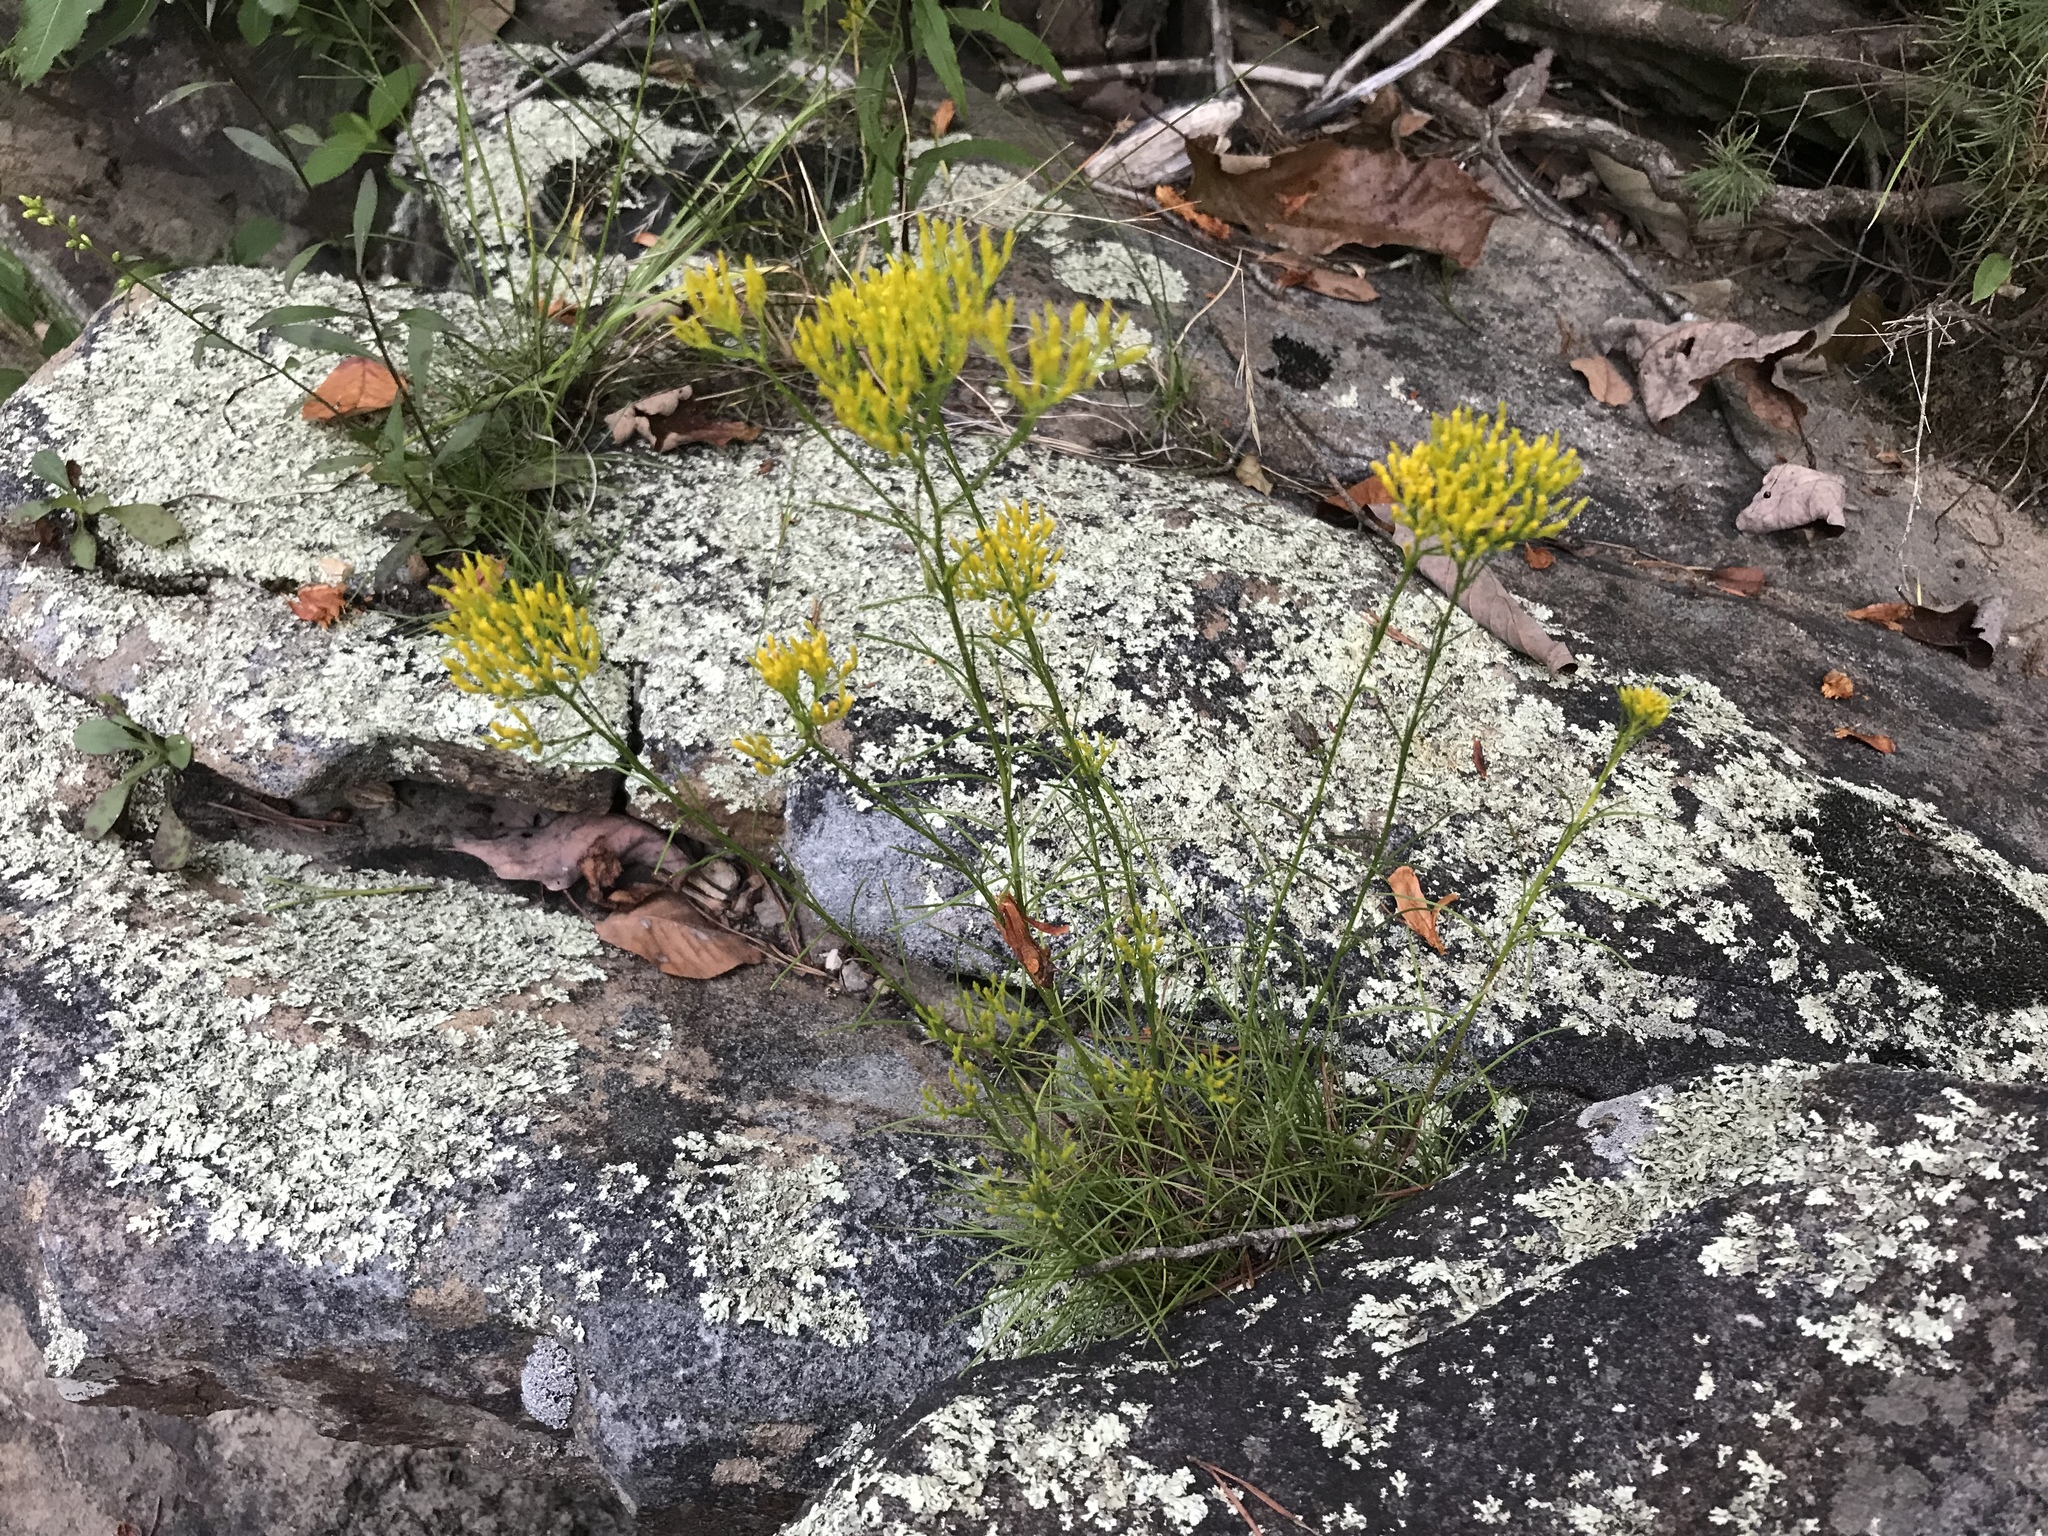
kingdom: Plantae
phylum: Tracheophyta
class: Magnoliopsida
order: Asterales
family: Asteraceae
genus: Bigelowia
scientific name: Bigelowia nuttallii
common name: Nuttall's rayless-goldenrod
